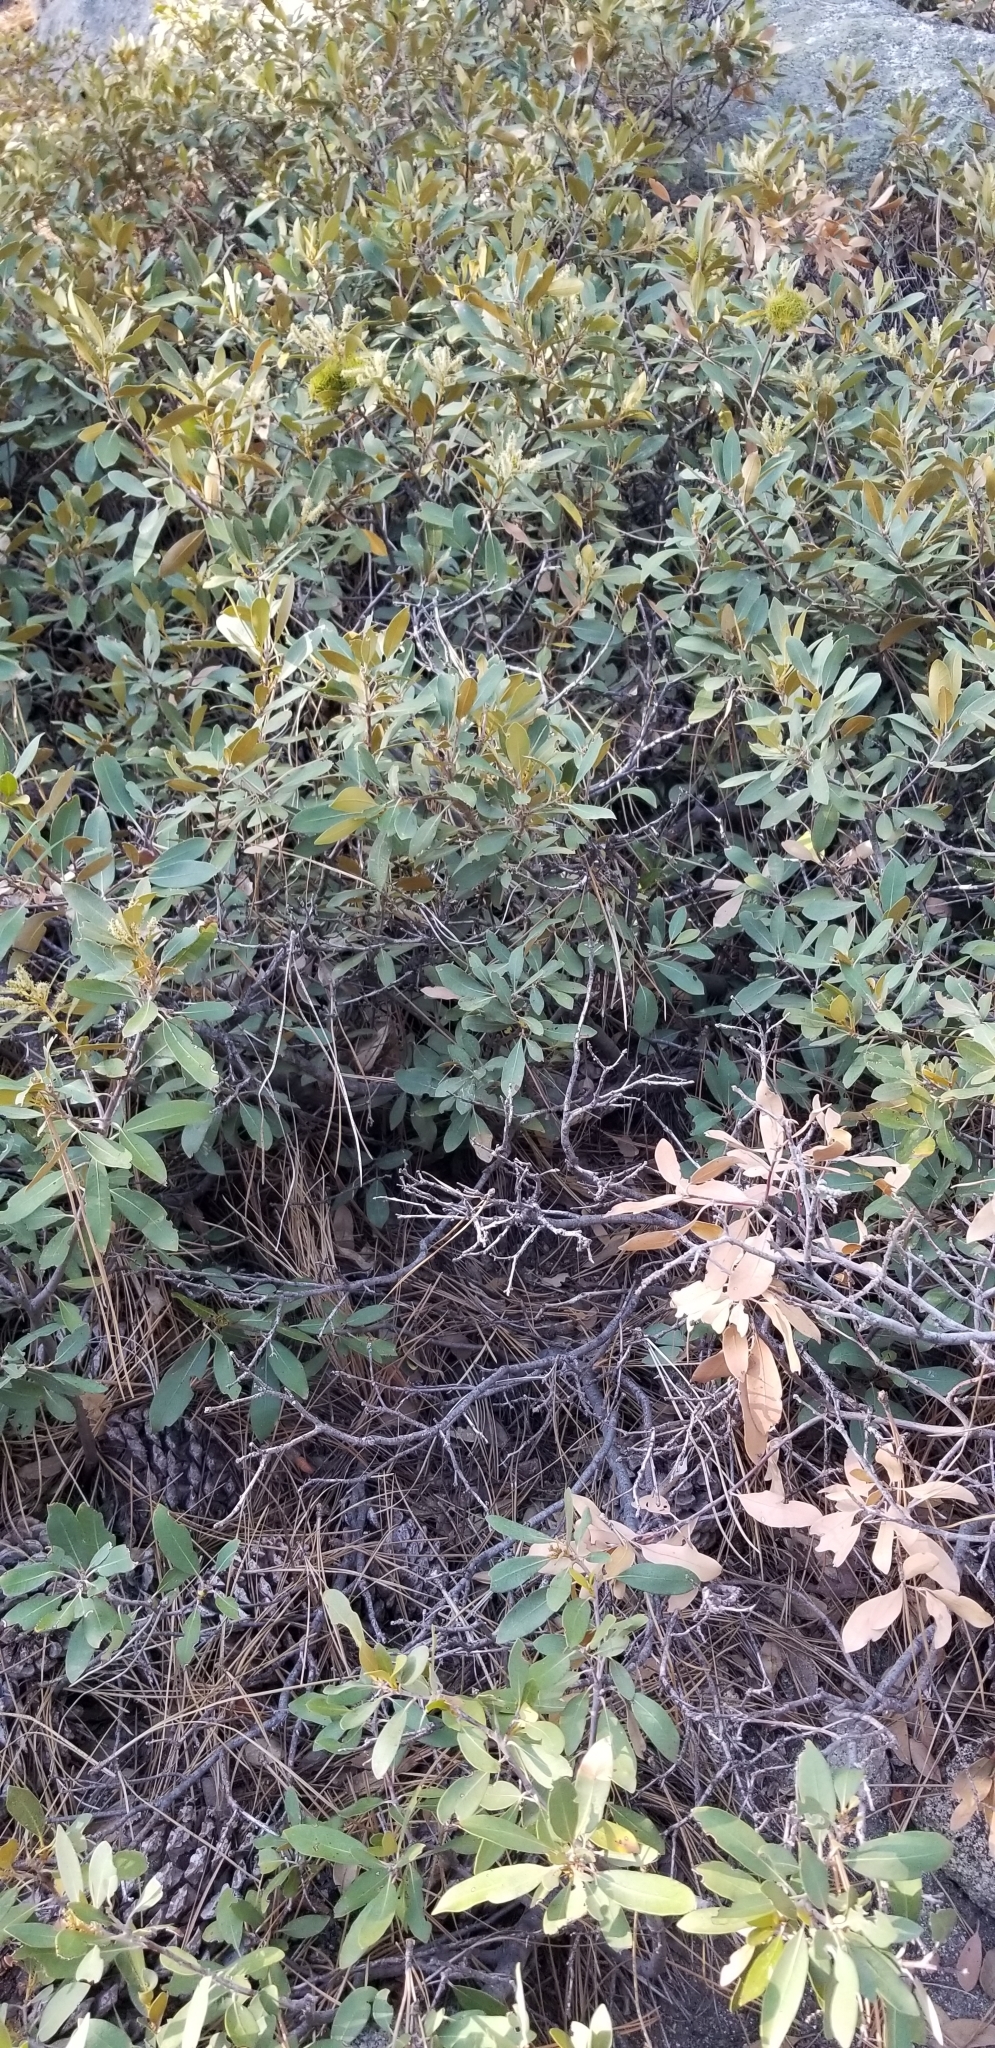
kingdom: Plantae
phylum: Tracheophyta
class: Magnoliopsida
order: Fagales
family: Fagaceae
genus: Chrysolepis
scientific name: Chrysolepis sempervirens
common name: Bush chinquapin
